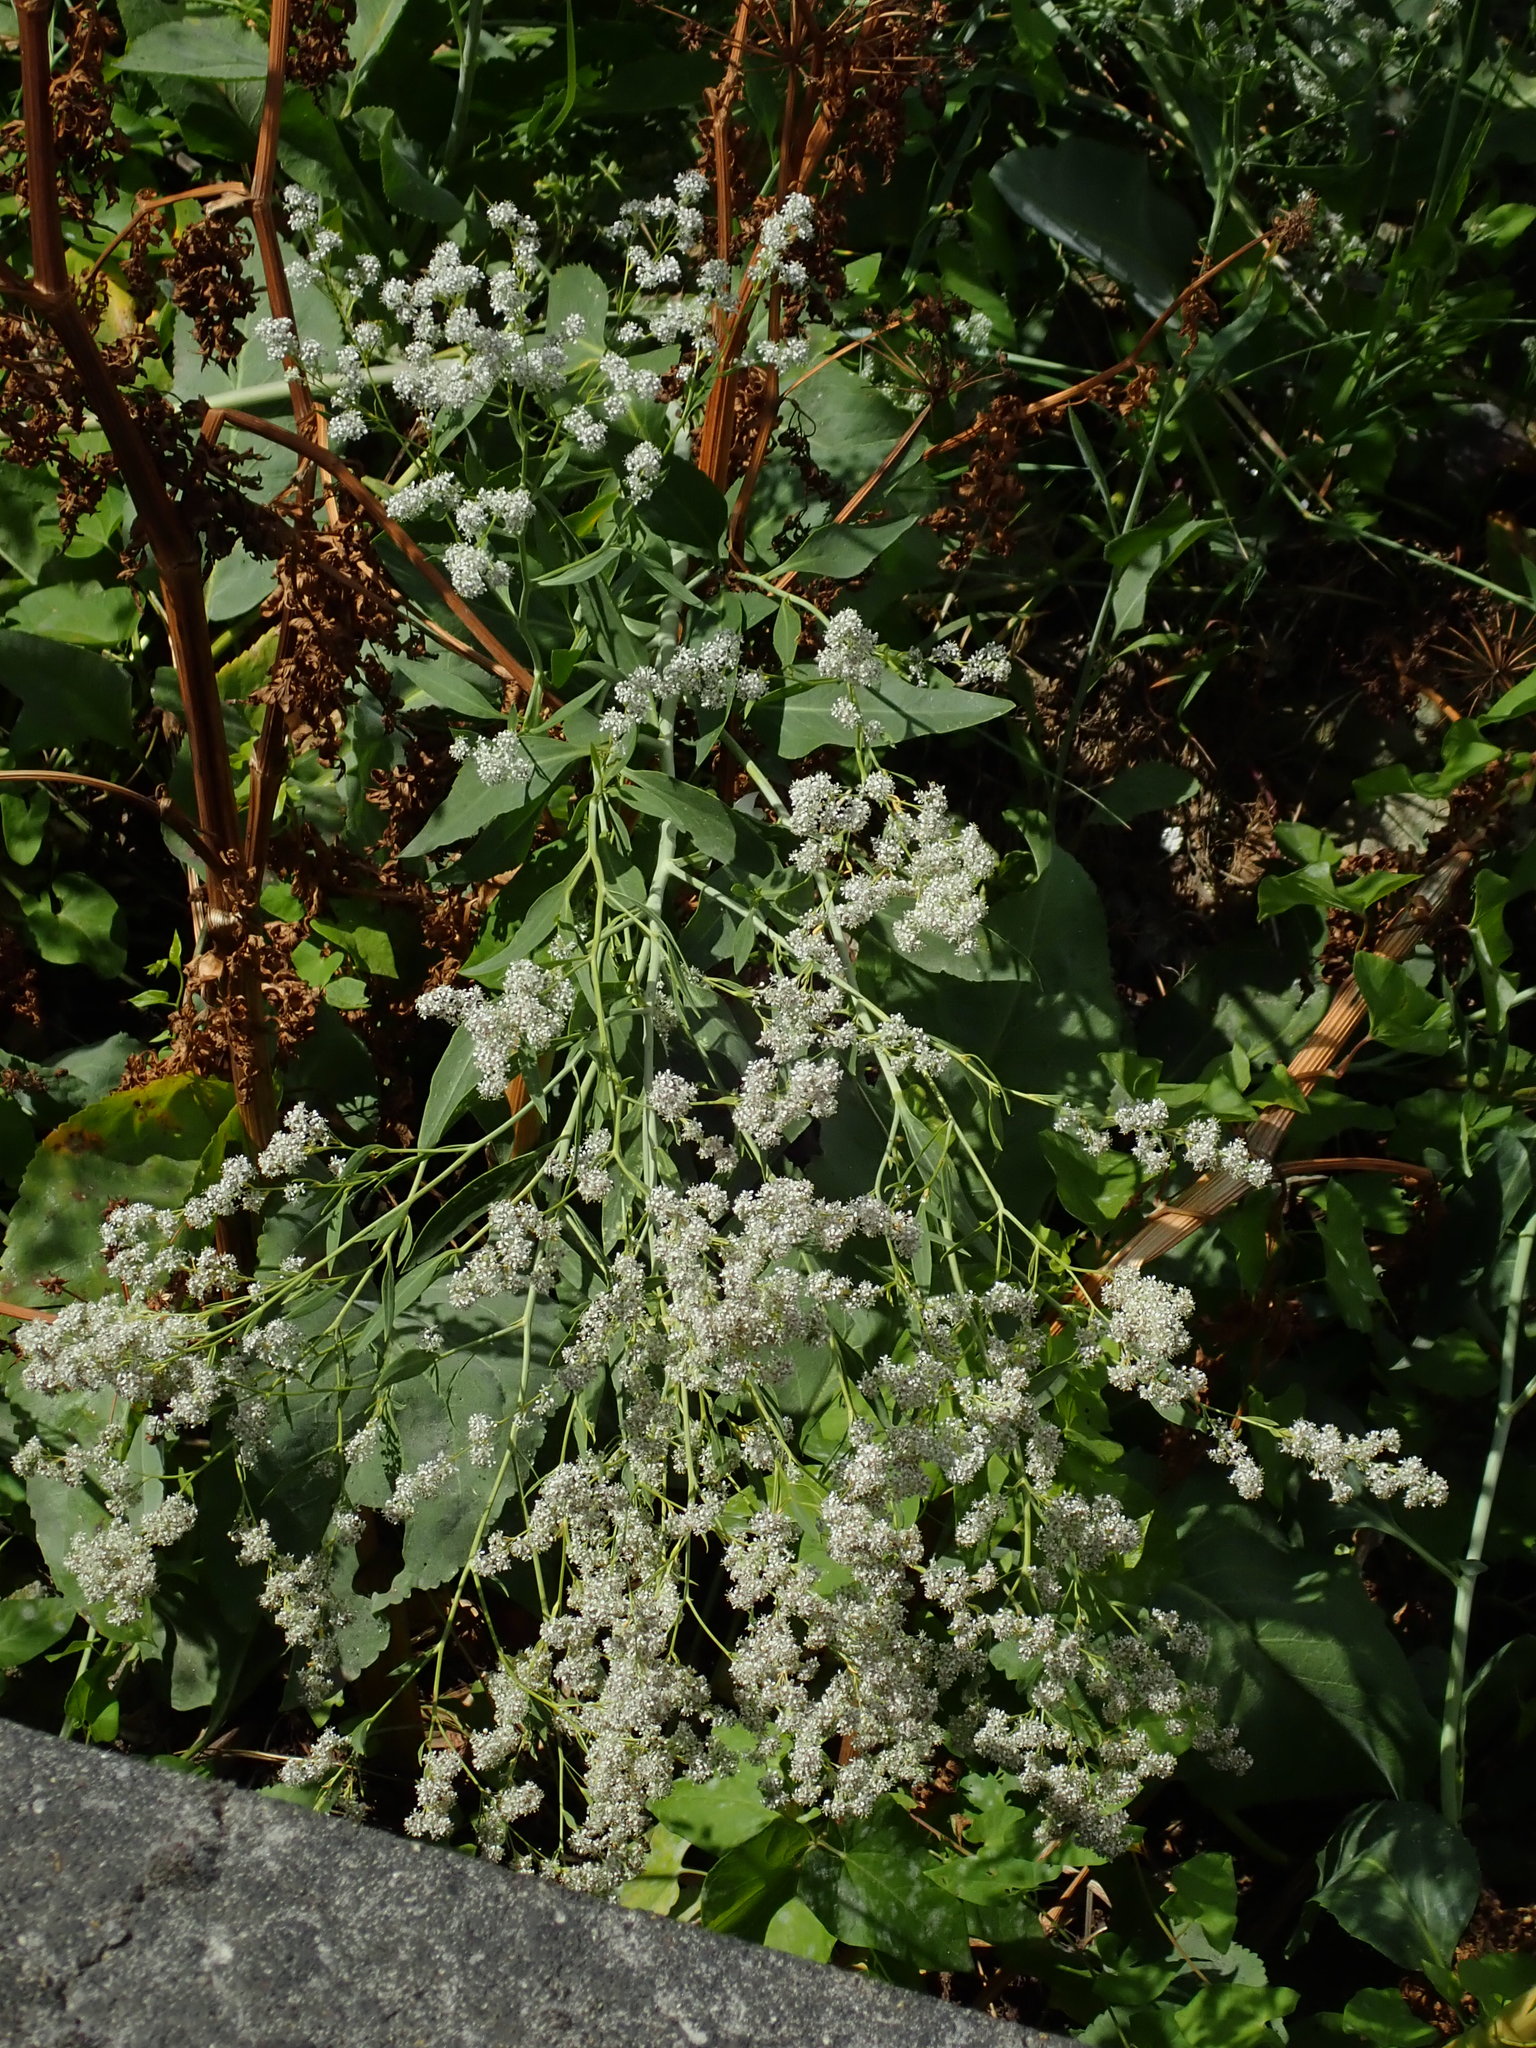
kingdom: Plantae
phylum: Tracheophyta
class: Magnoliopsida
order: Brassicales
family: Brassicaceae
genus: Lepidium
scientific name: Lepidium latifolium
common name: Dittander
